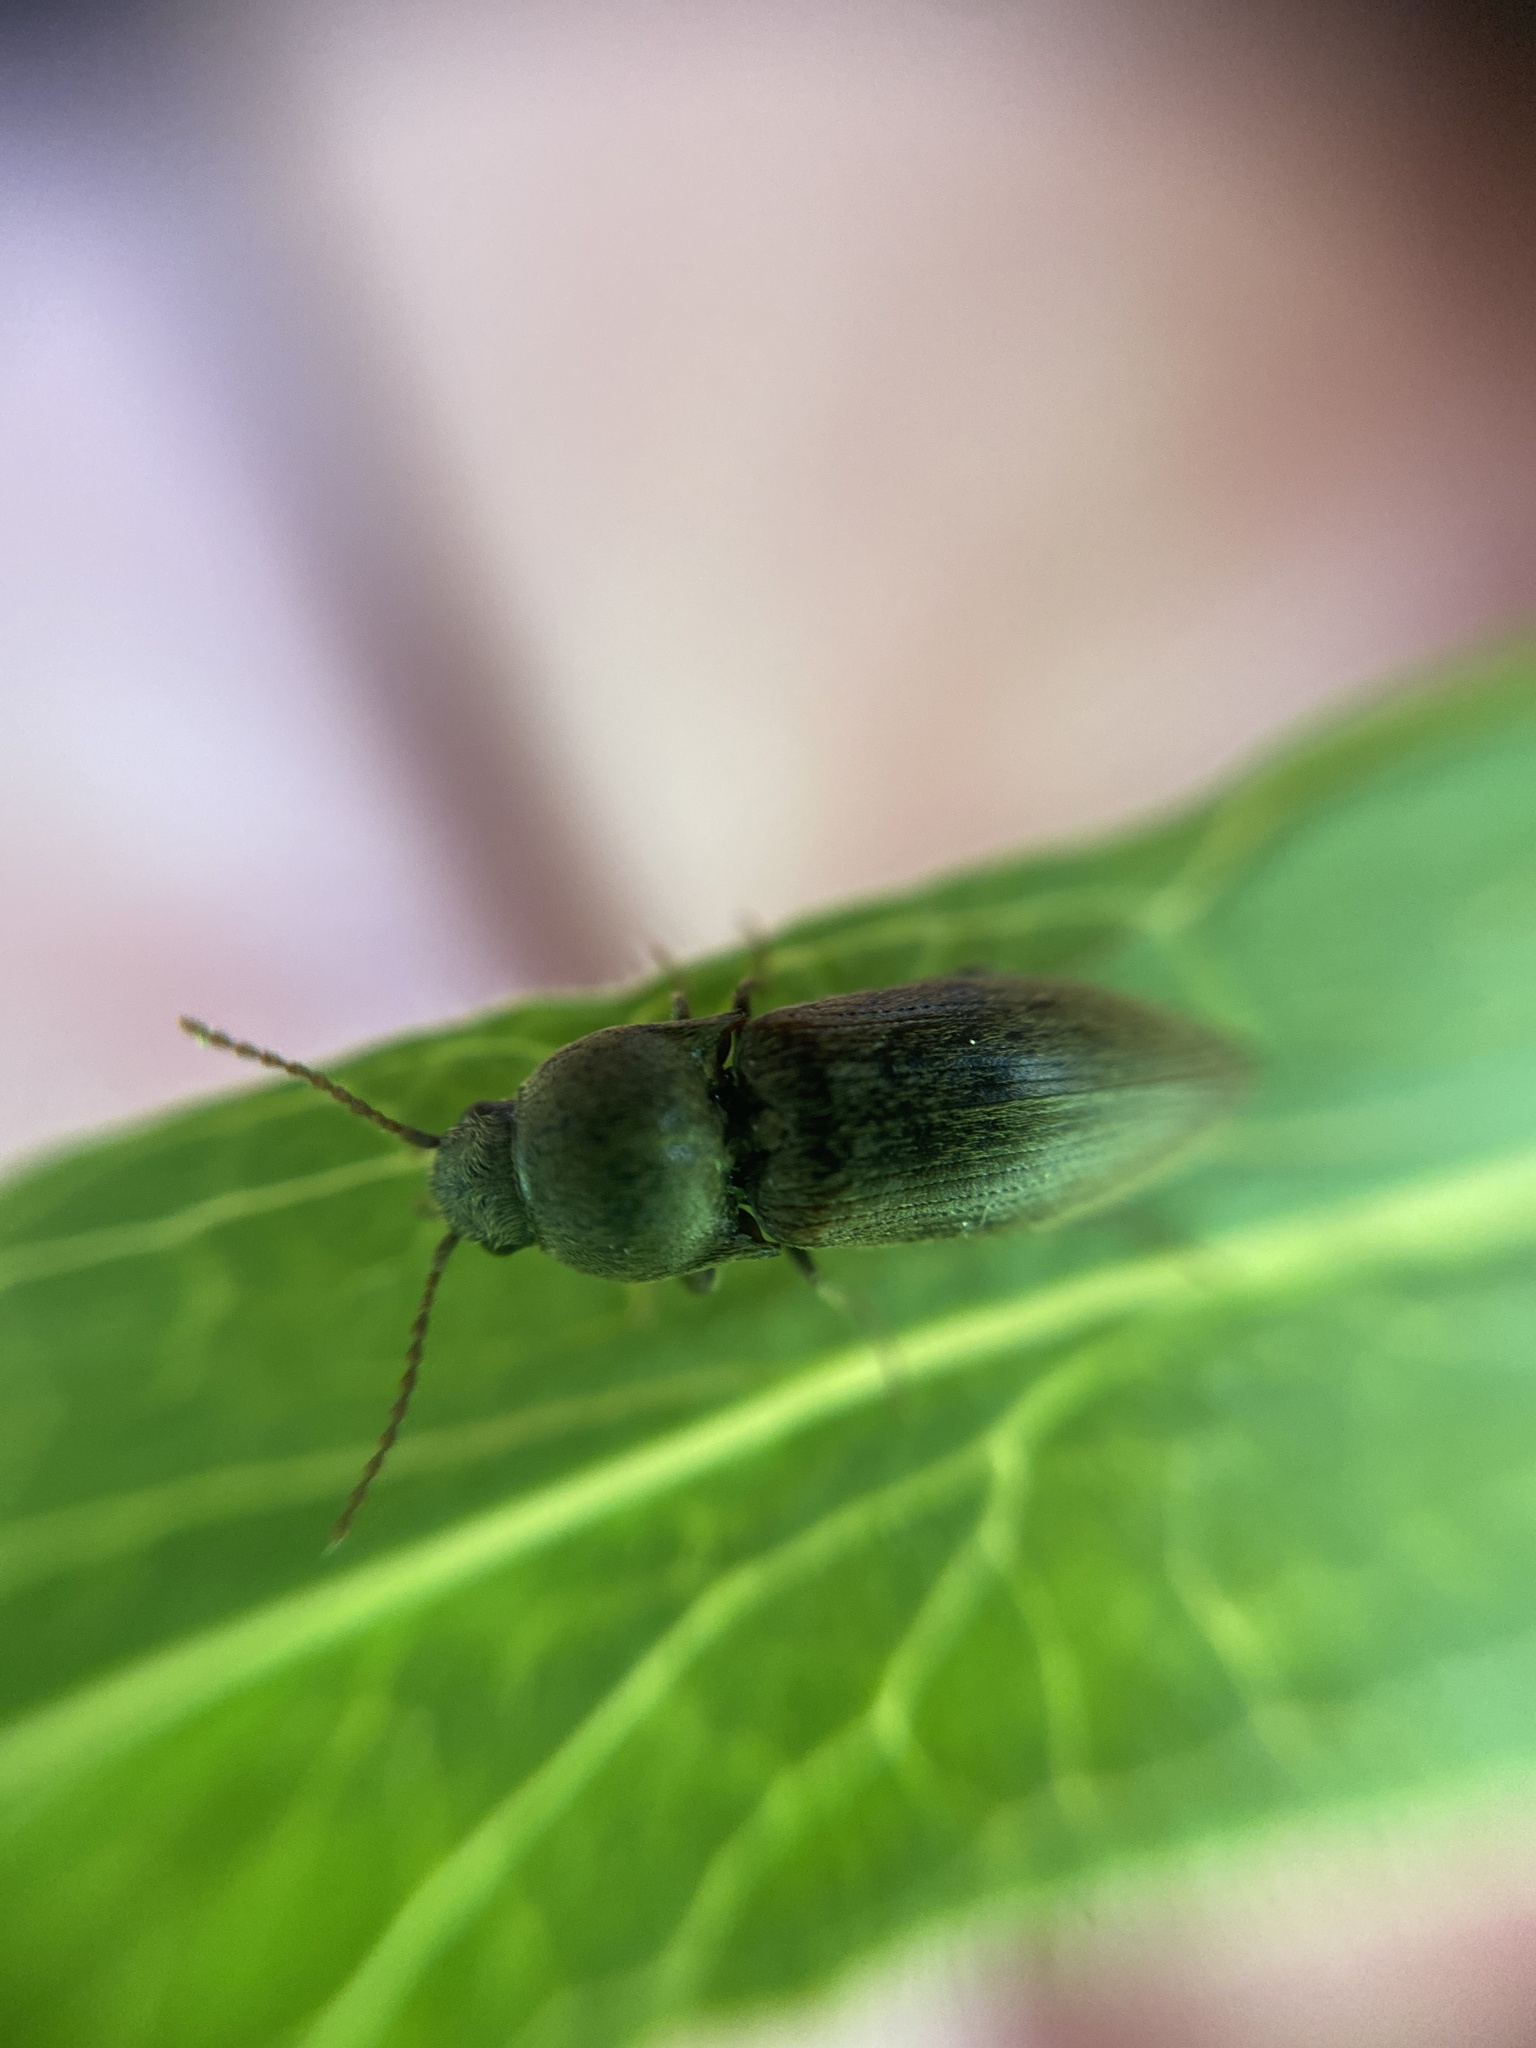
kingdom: Animalia
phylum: Arthropoda
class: Insecta
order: Coleoptera
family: Elateridae
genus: Agriotes
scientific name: Agriotes obscurus
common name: Dusky wireworm
